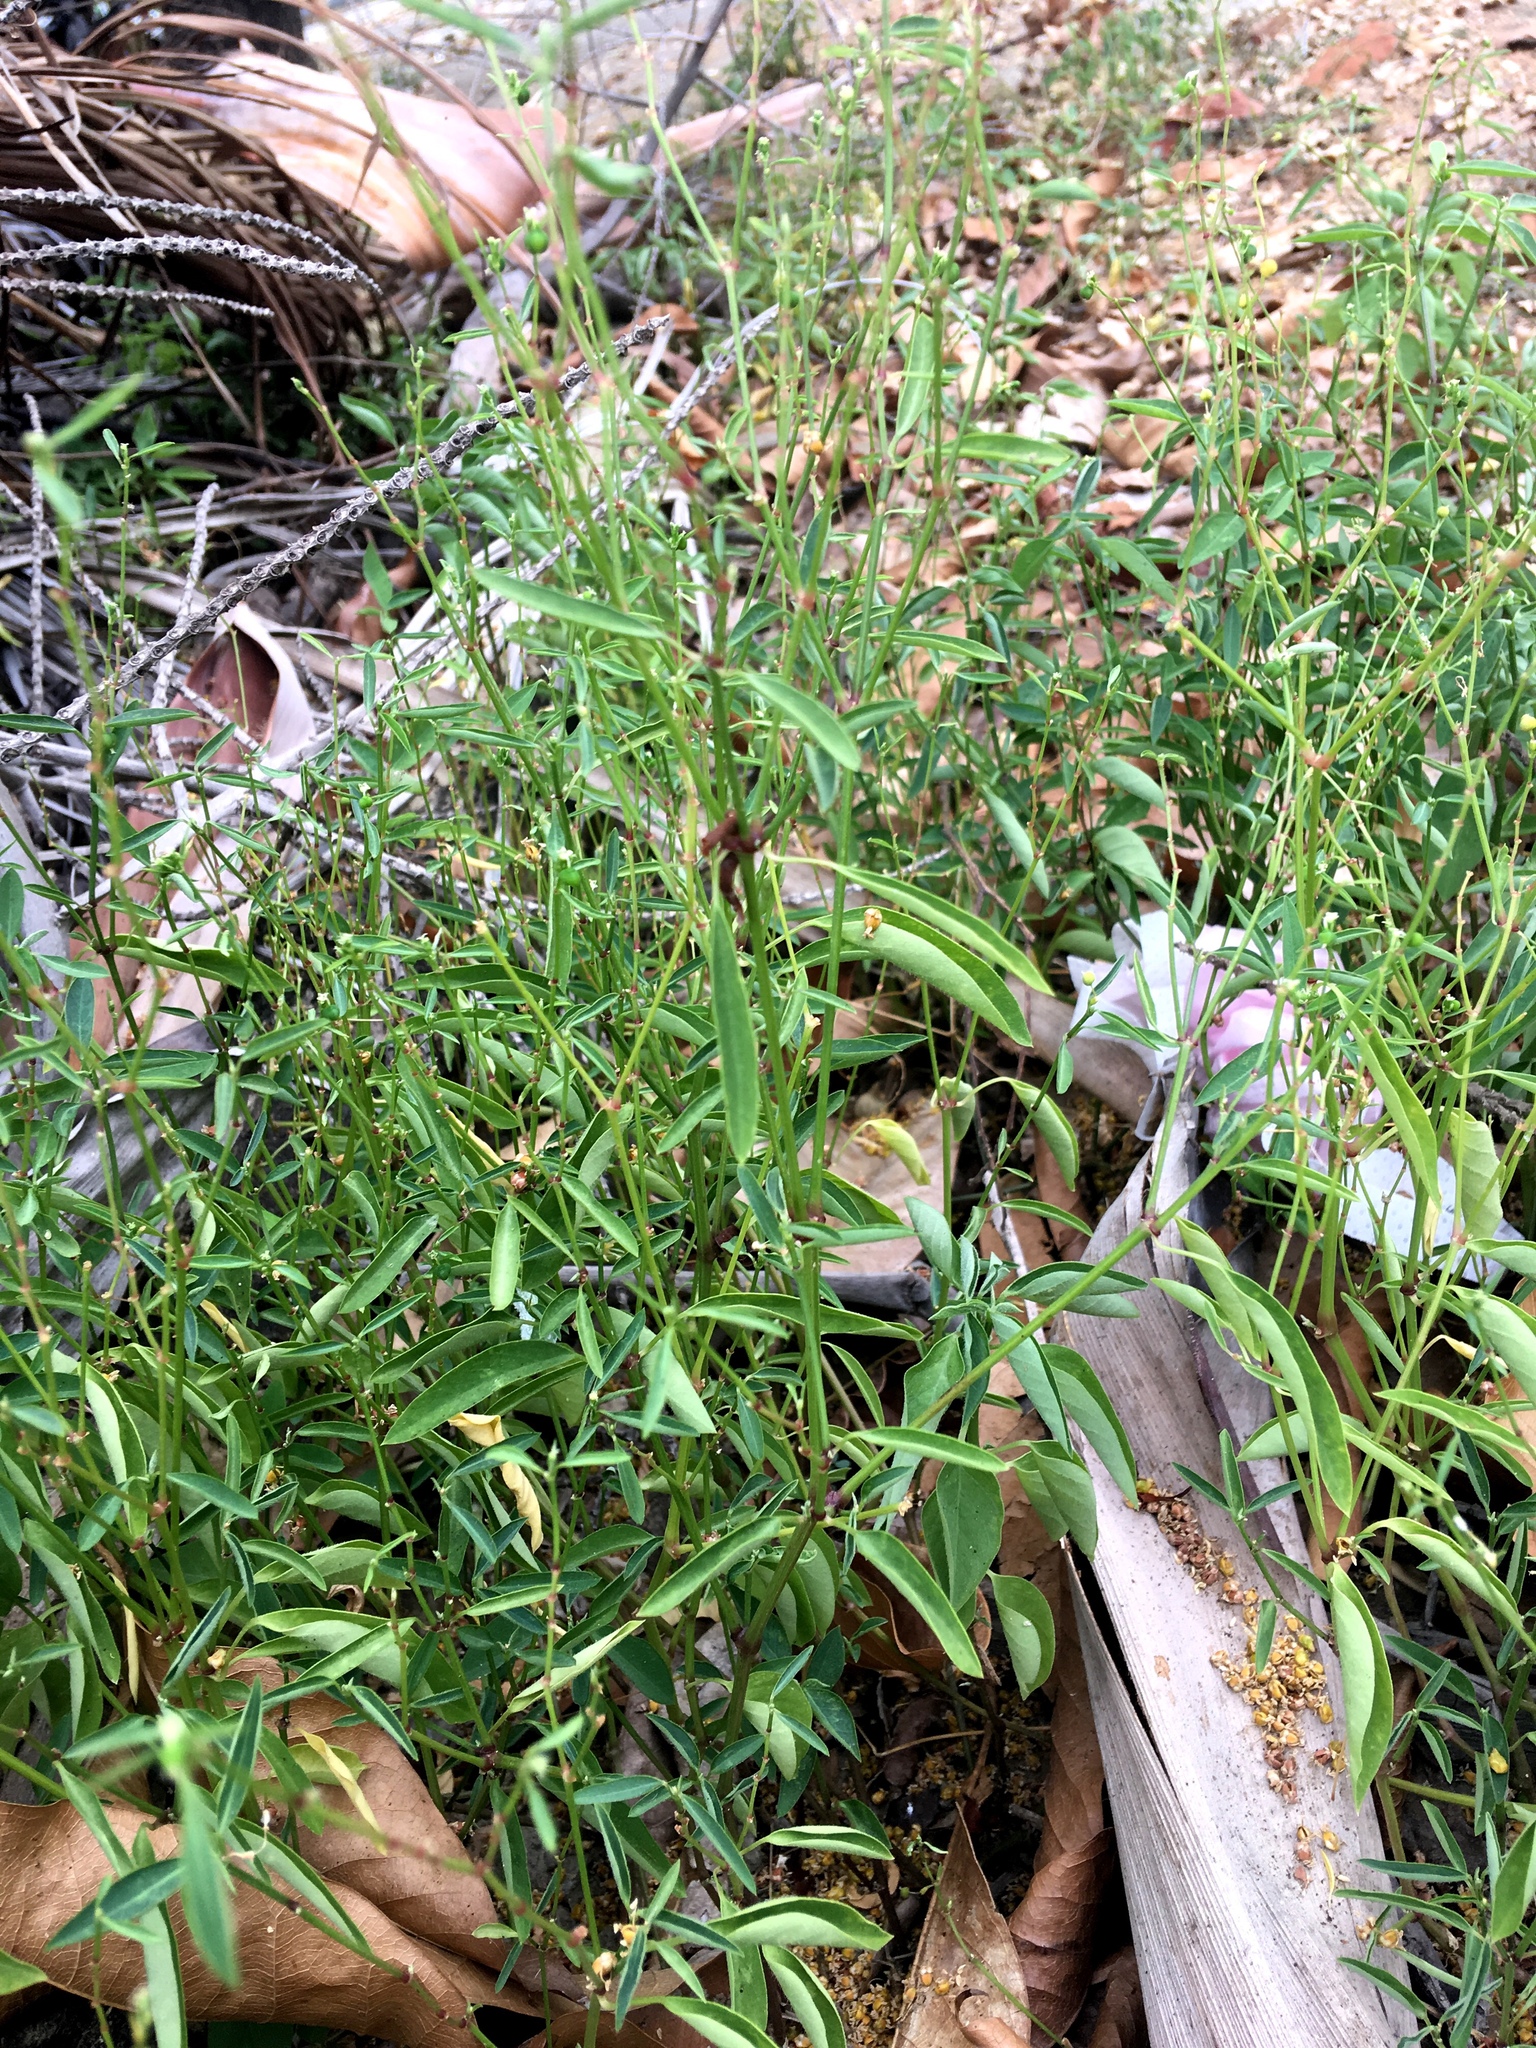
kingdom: Plantae
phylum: Tracheophyta
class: Magnoliopsida
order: Malpighiales
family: Euphorbiaceae
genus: Euphorbia
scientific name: Euphorbia graminea
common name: Grassleaf spurge
